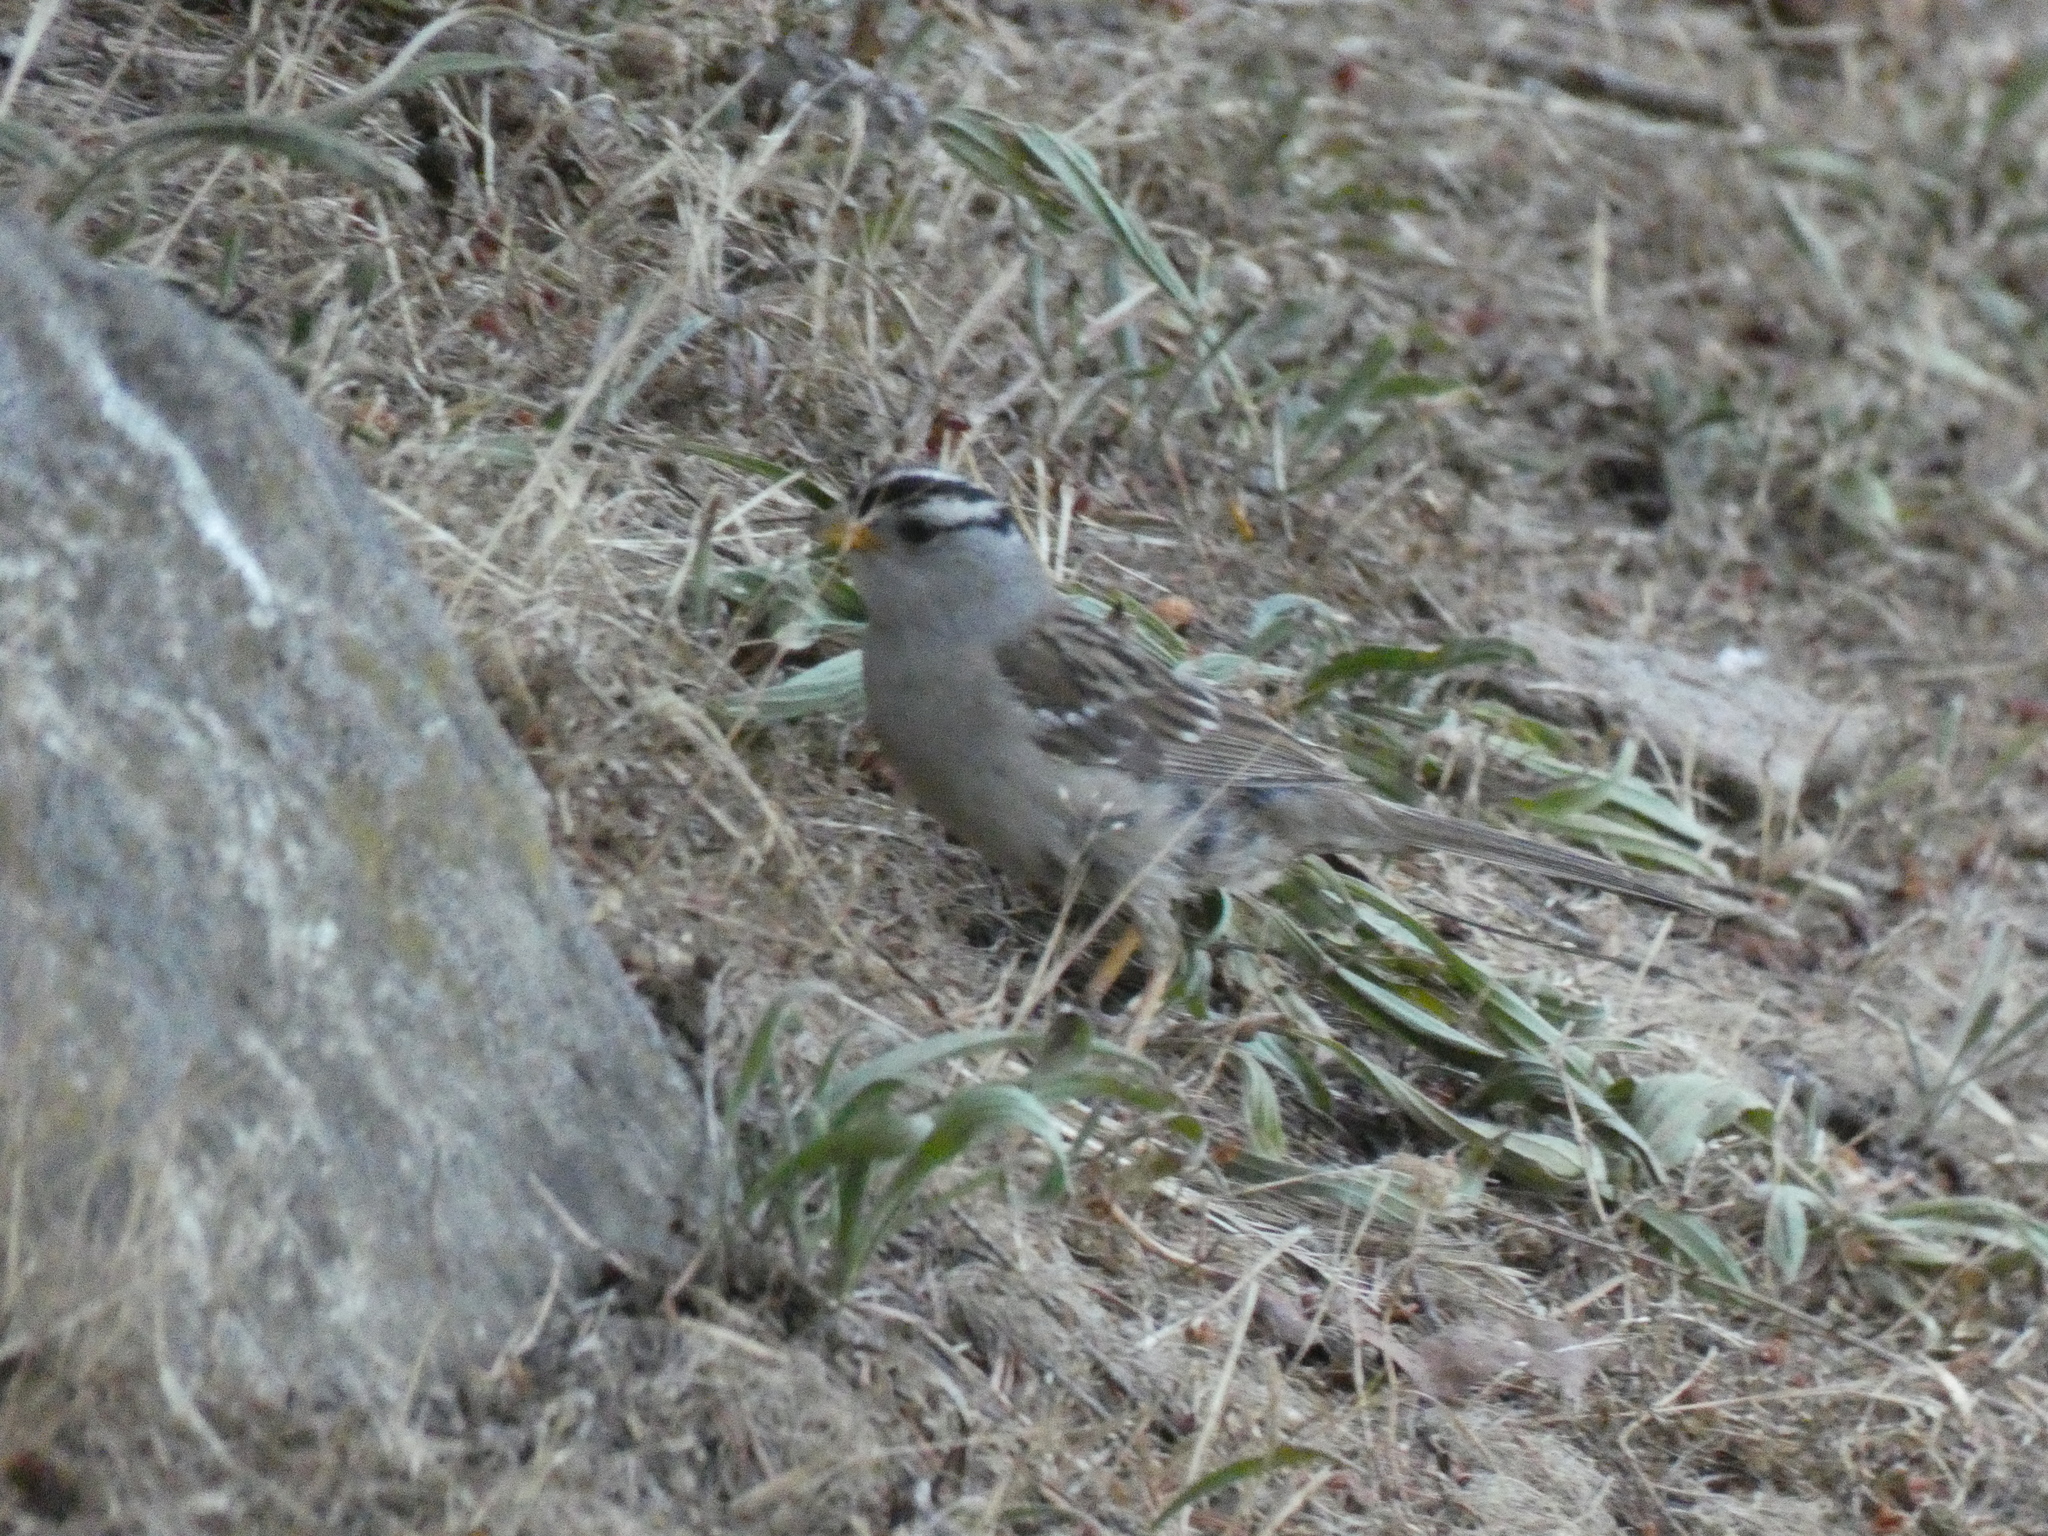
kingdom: Animalia
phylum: Chordata
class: Aves
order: Passeriformes
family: Passerellidae
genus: Zonotrichia
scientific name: Zonotrichia leucophrys
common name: White-crowned sparrow
